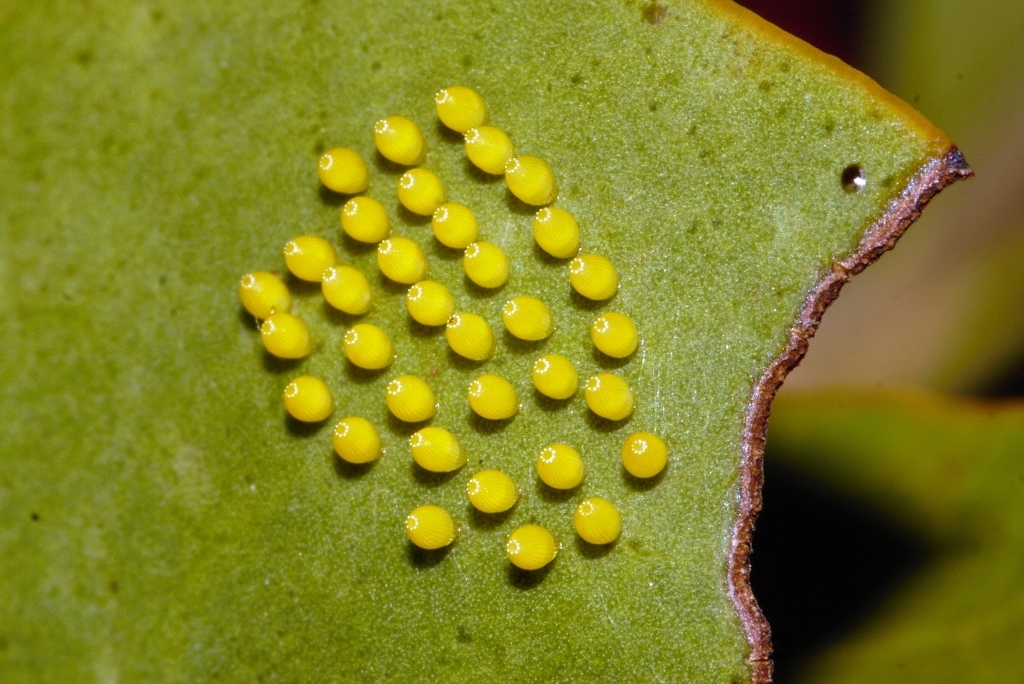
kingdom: Animalia
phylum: Arthropoda
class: Insecta
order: Lepidoptera
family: Pieridae
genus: Mylothris
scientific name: Mylothris agathina
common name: Eastern dotted border
